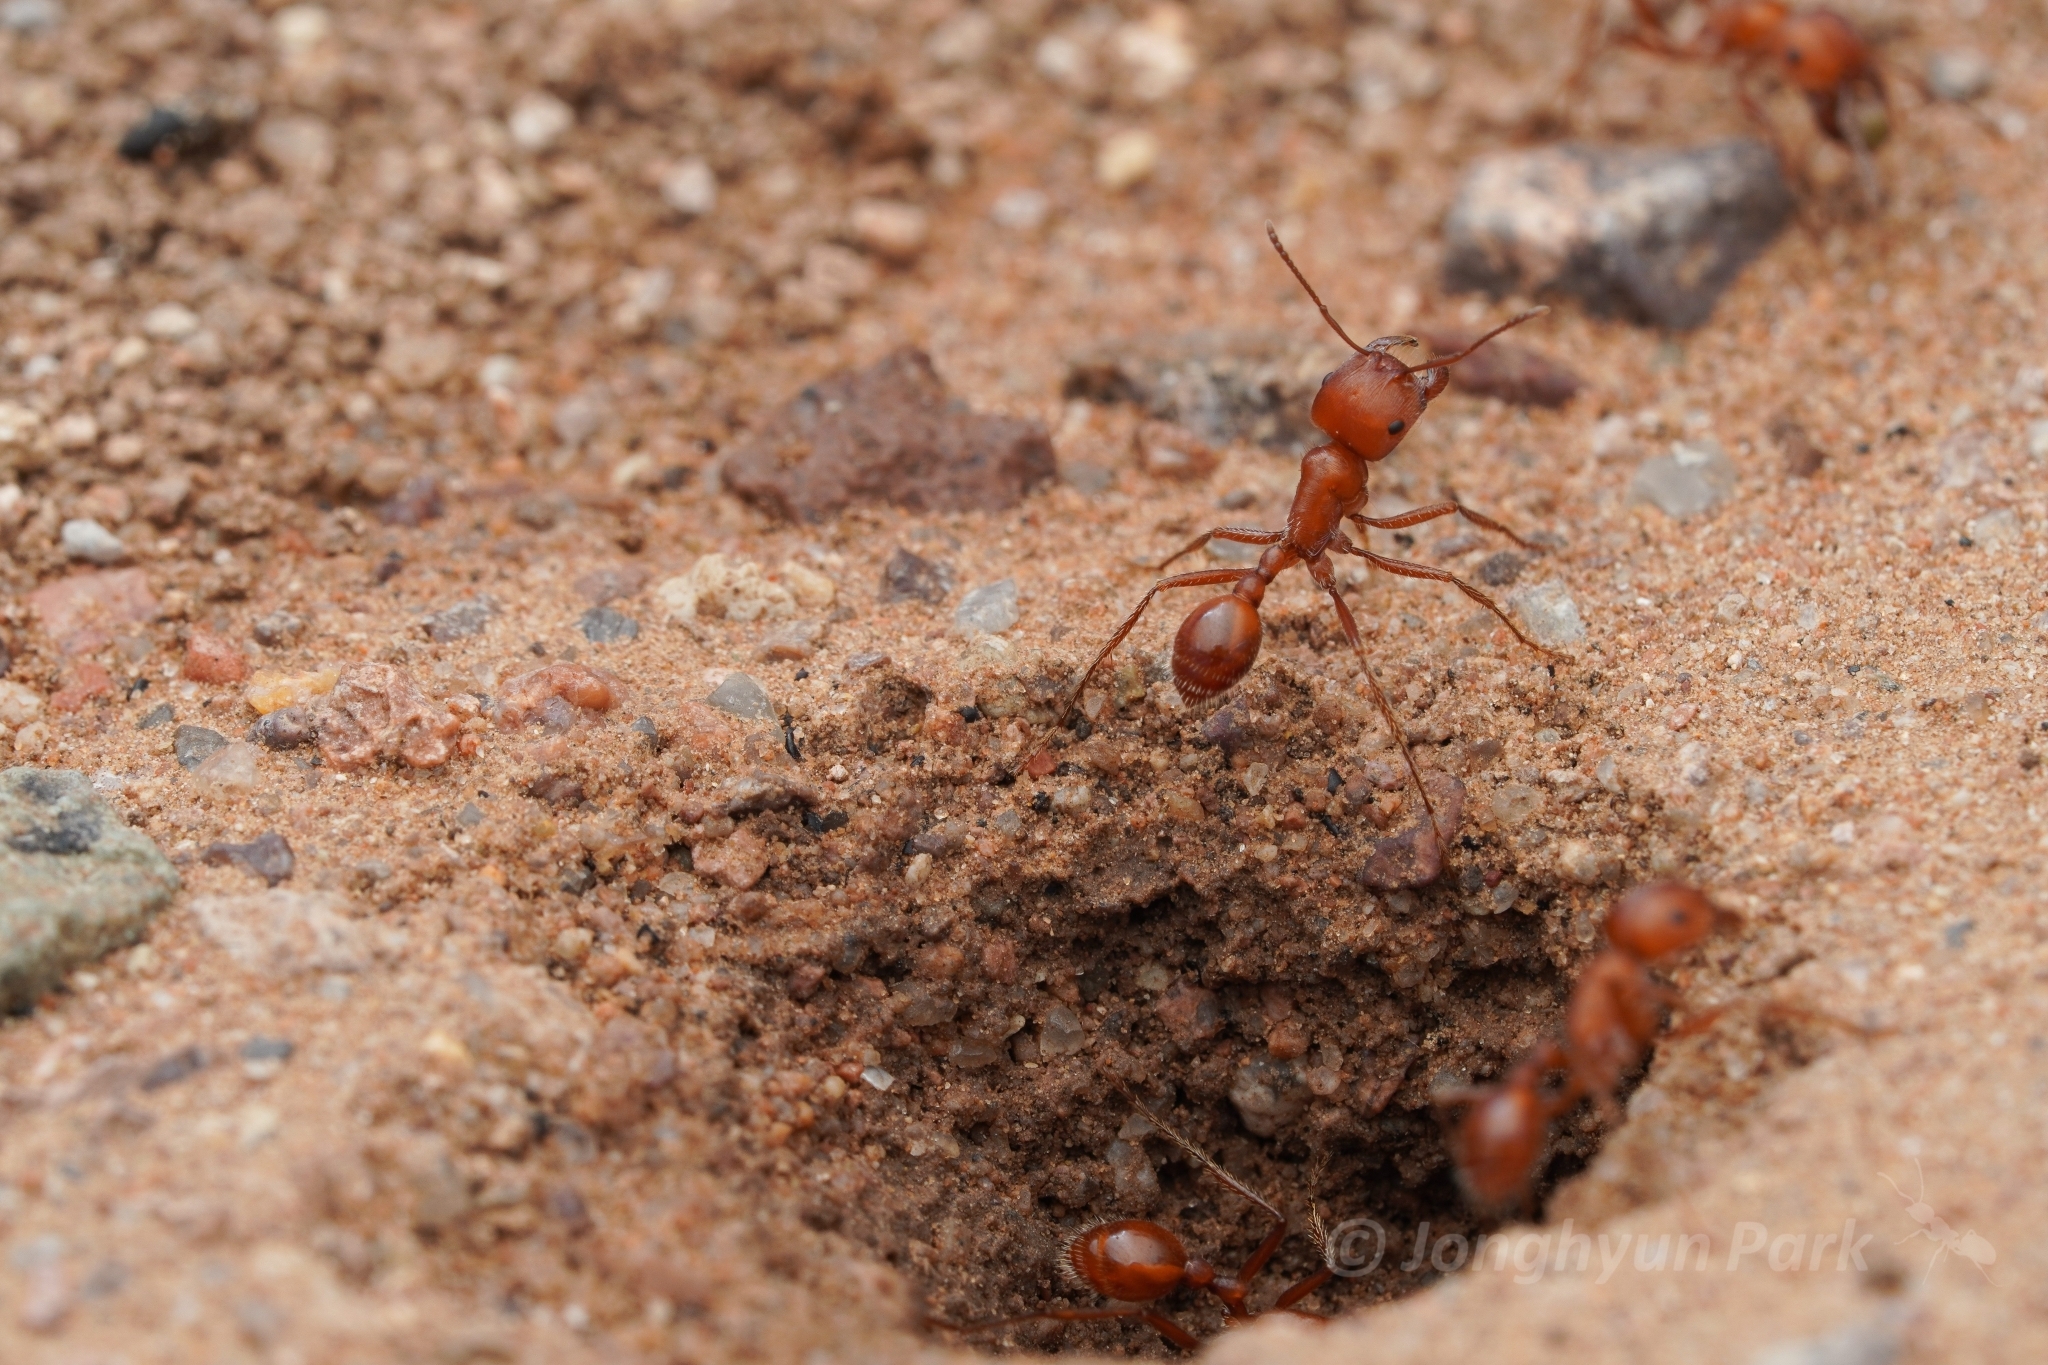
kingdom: Animalia
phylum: Arthropoda
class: Insecta
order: Hymenoptera
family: Formicidae
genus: Pogonomyrmex
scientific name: Pogonomyrmex maricopa
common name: Maricopa harvester ant
